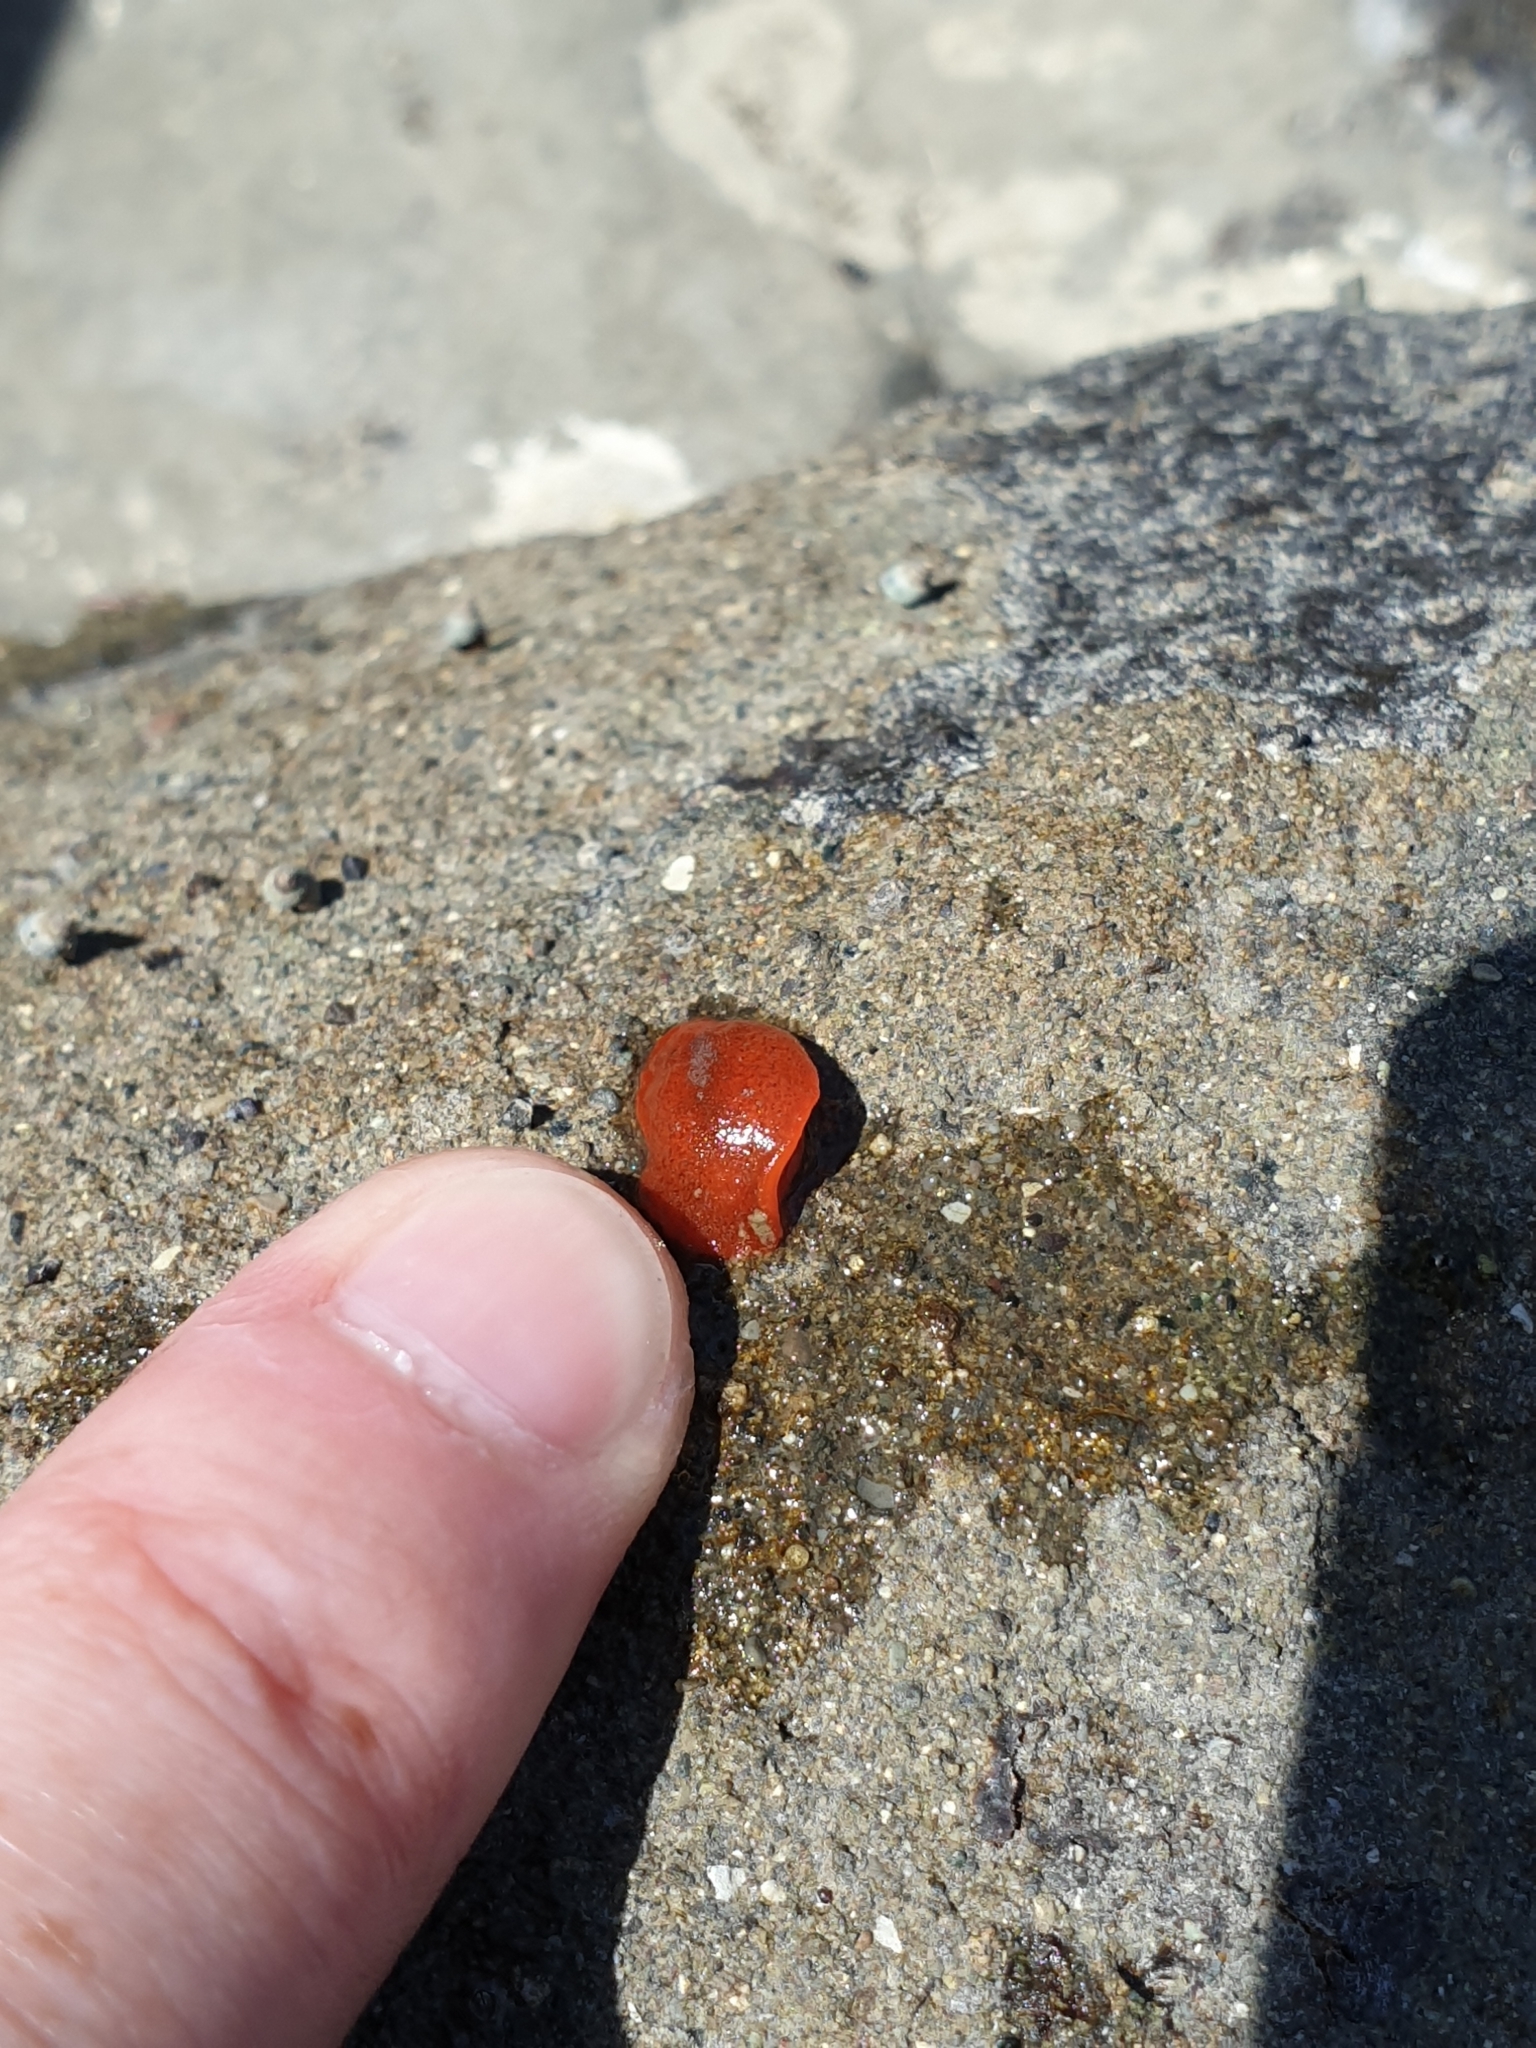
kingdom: Animalia
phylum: Mollusca
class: Gastropoda
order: Littorinimorpha
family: Velutinidae
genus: Lamellaria
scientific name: Lamellaria ophione
